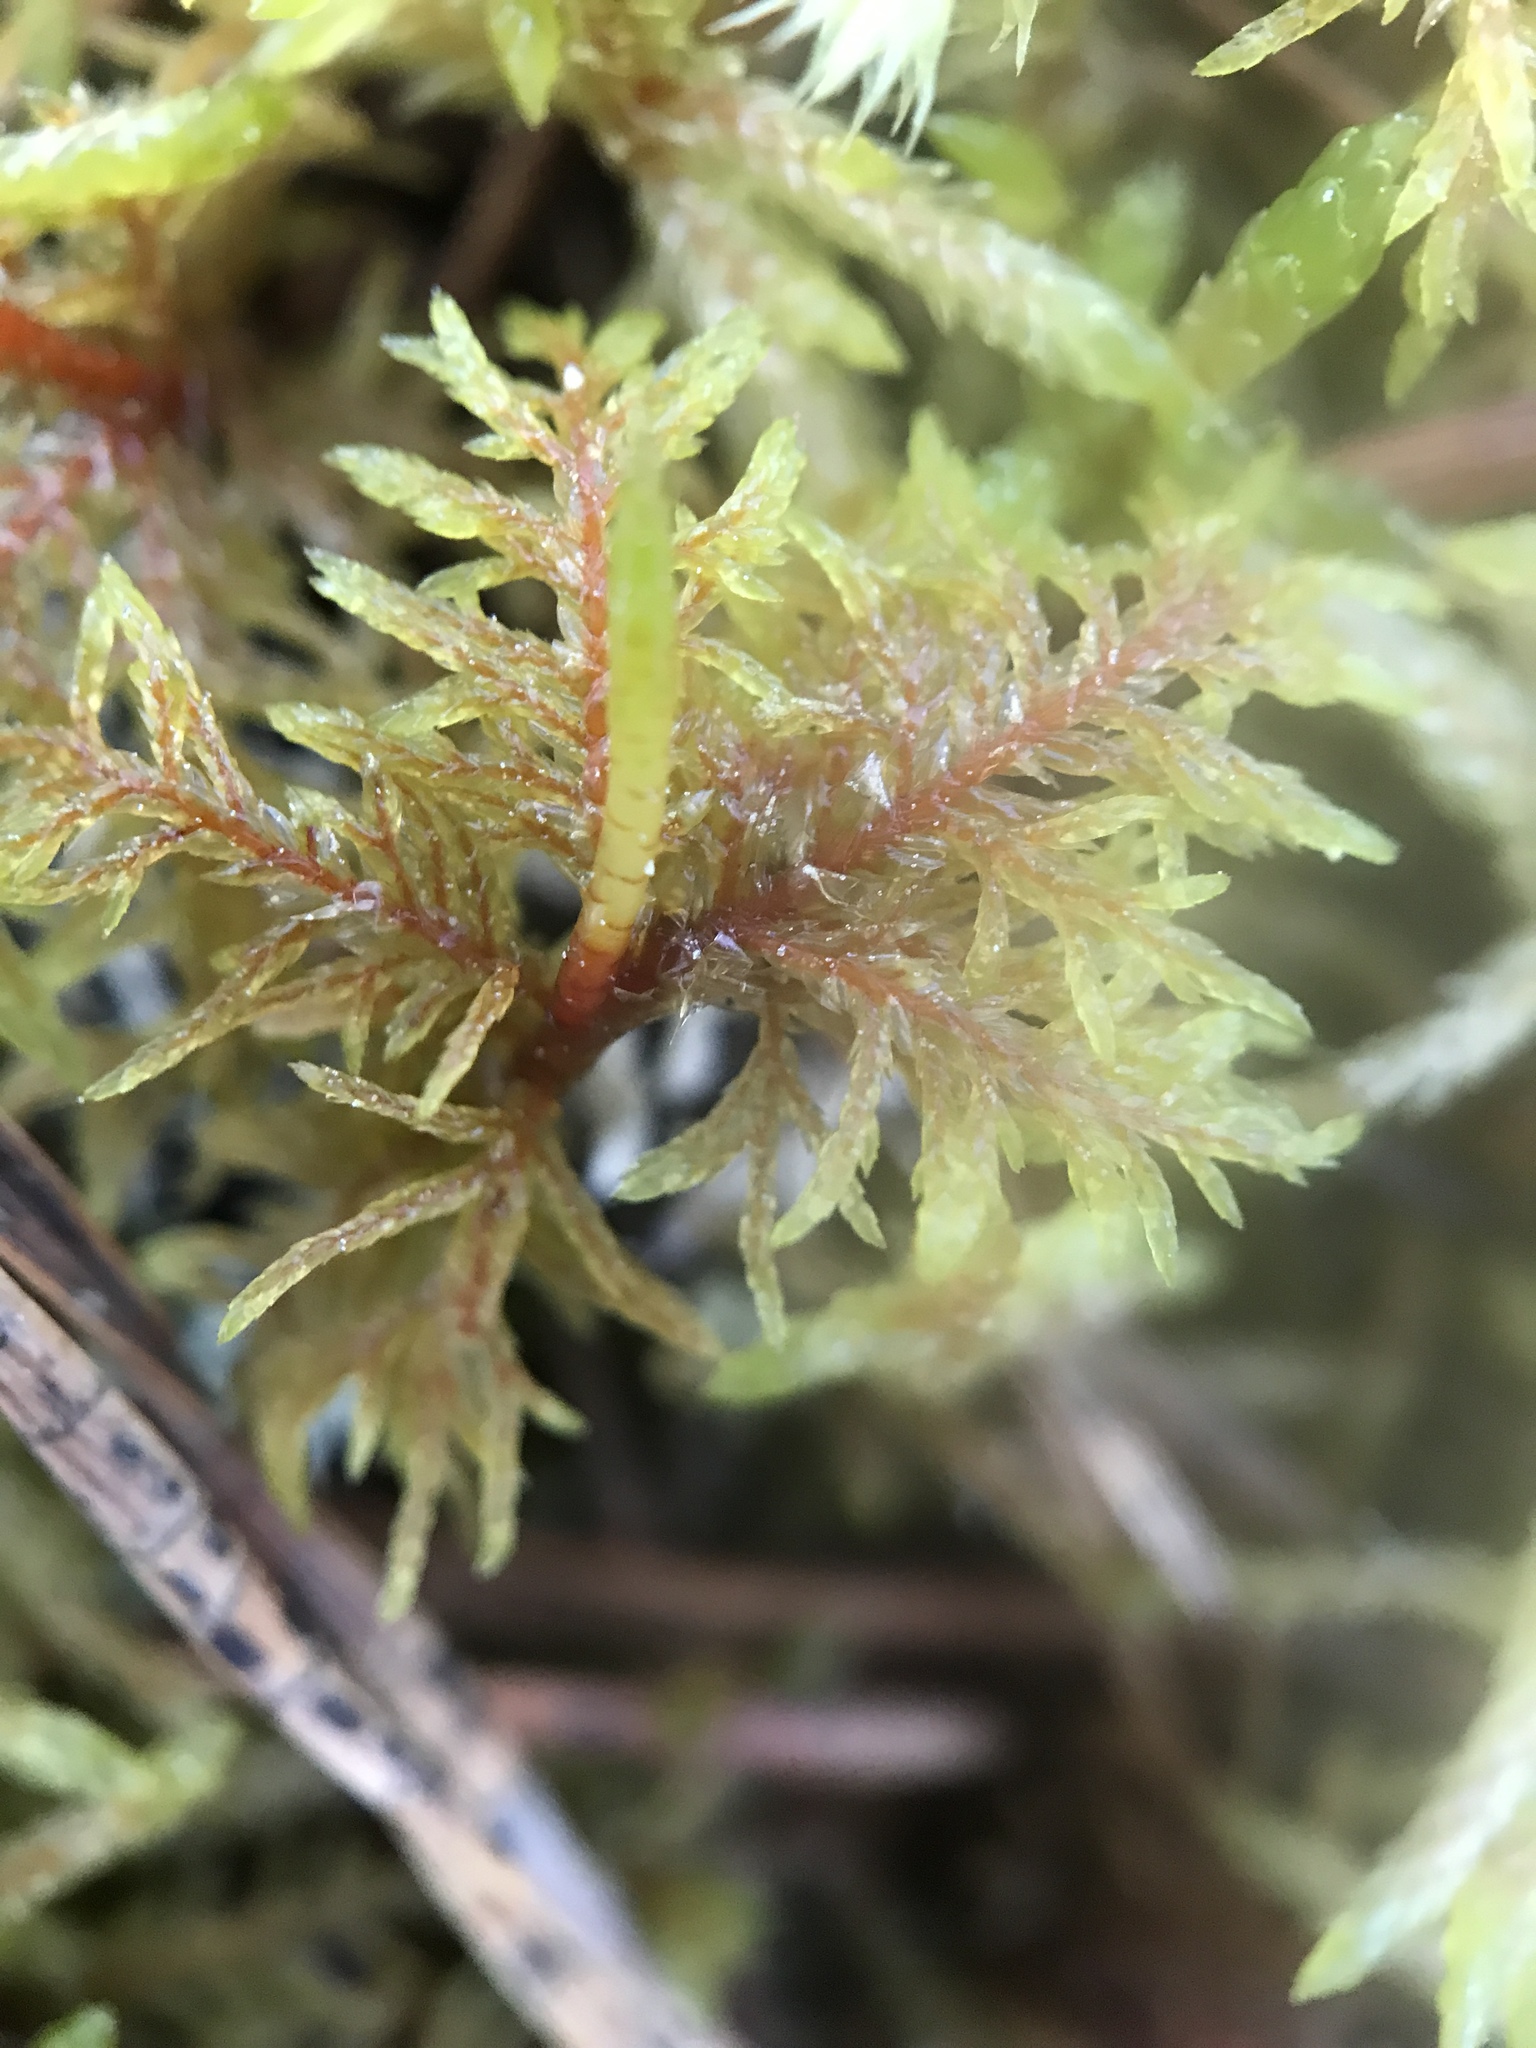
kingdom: Plantae
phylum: Bryophyta
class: Bryopsida
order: Hypnales
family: Hylocomiaceae
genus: Hylocomium
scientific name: Hylocomium splendens
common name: Stairstep moss
